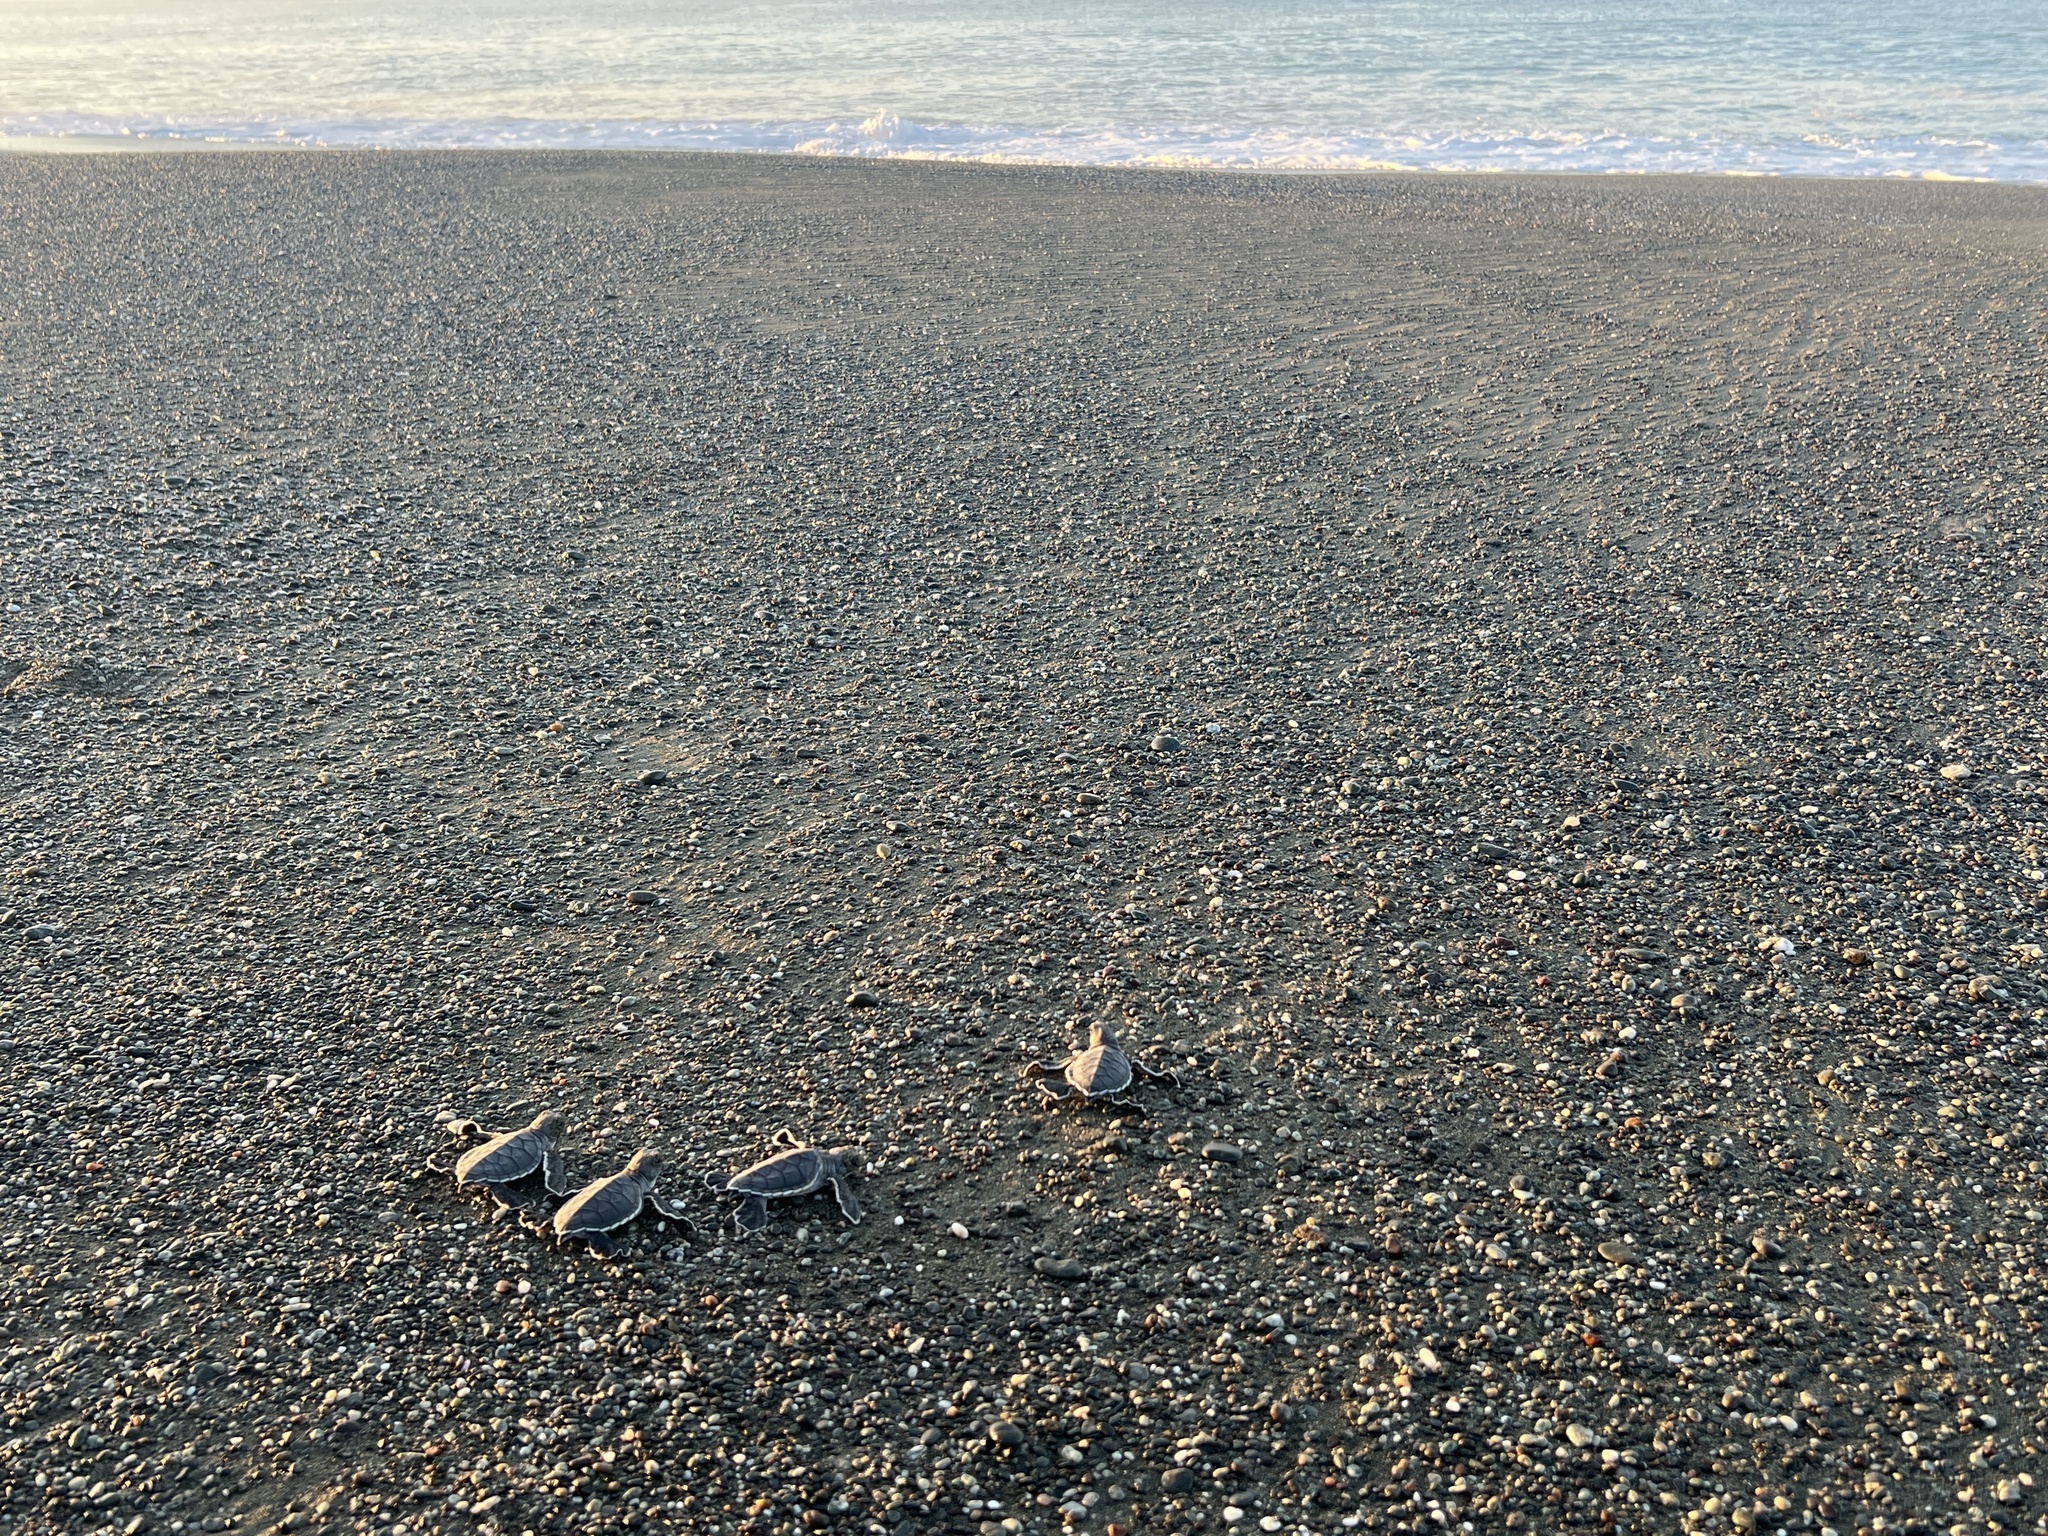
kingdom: Animalia
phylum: Chordata
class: Testudines
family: Cheloniidae
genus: Chelonia
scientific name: Chelonia mydas
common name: Green turtle
